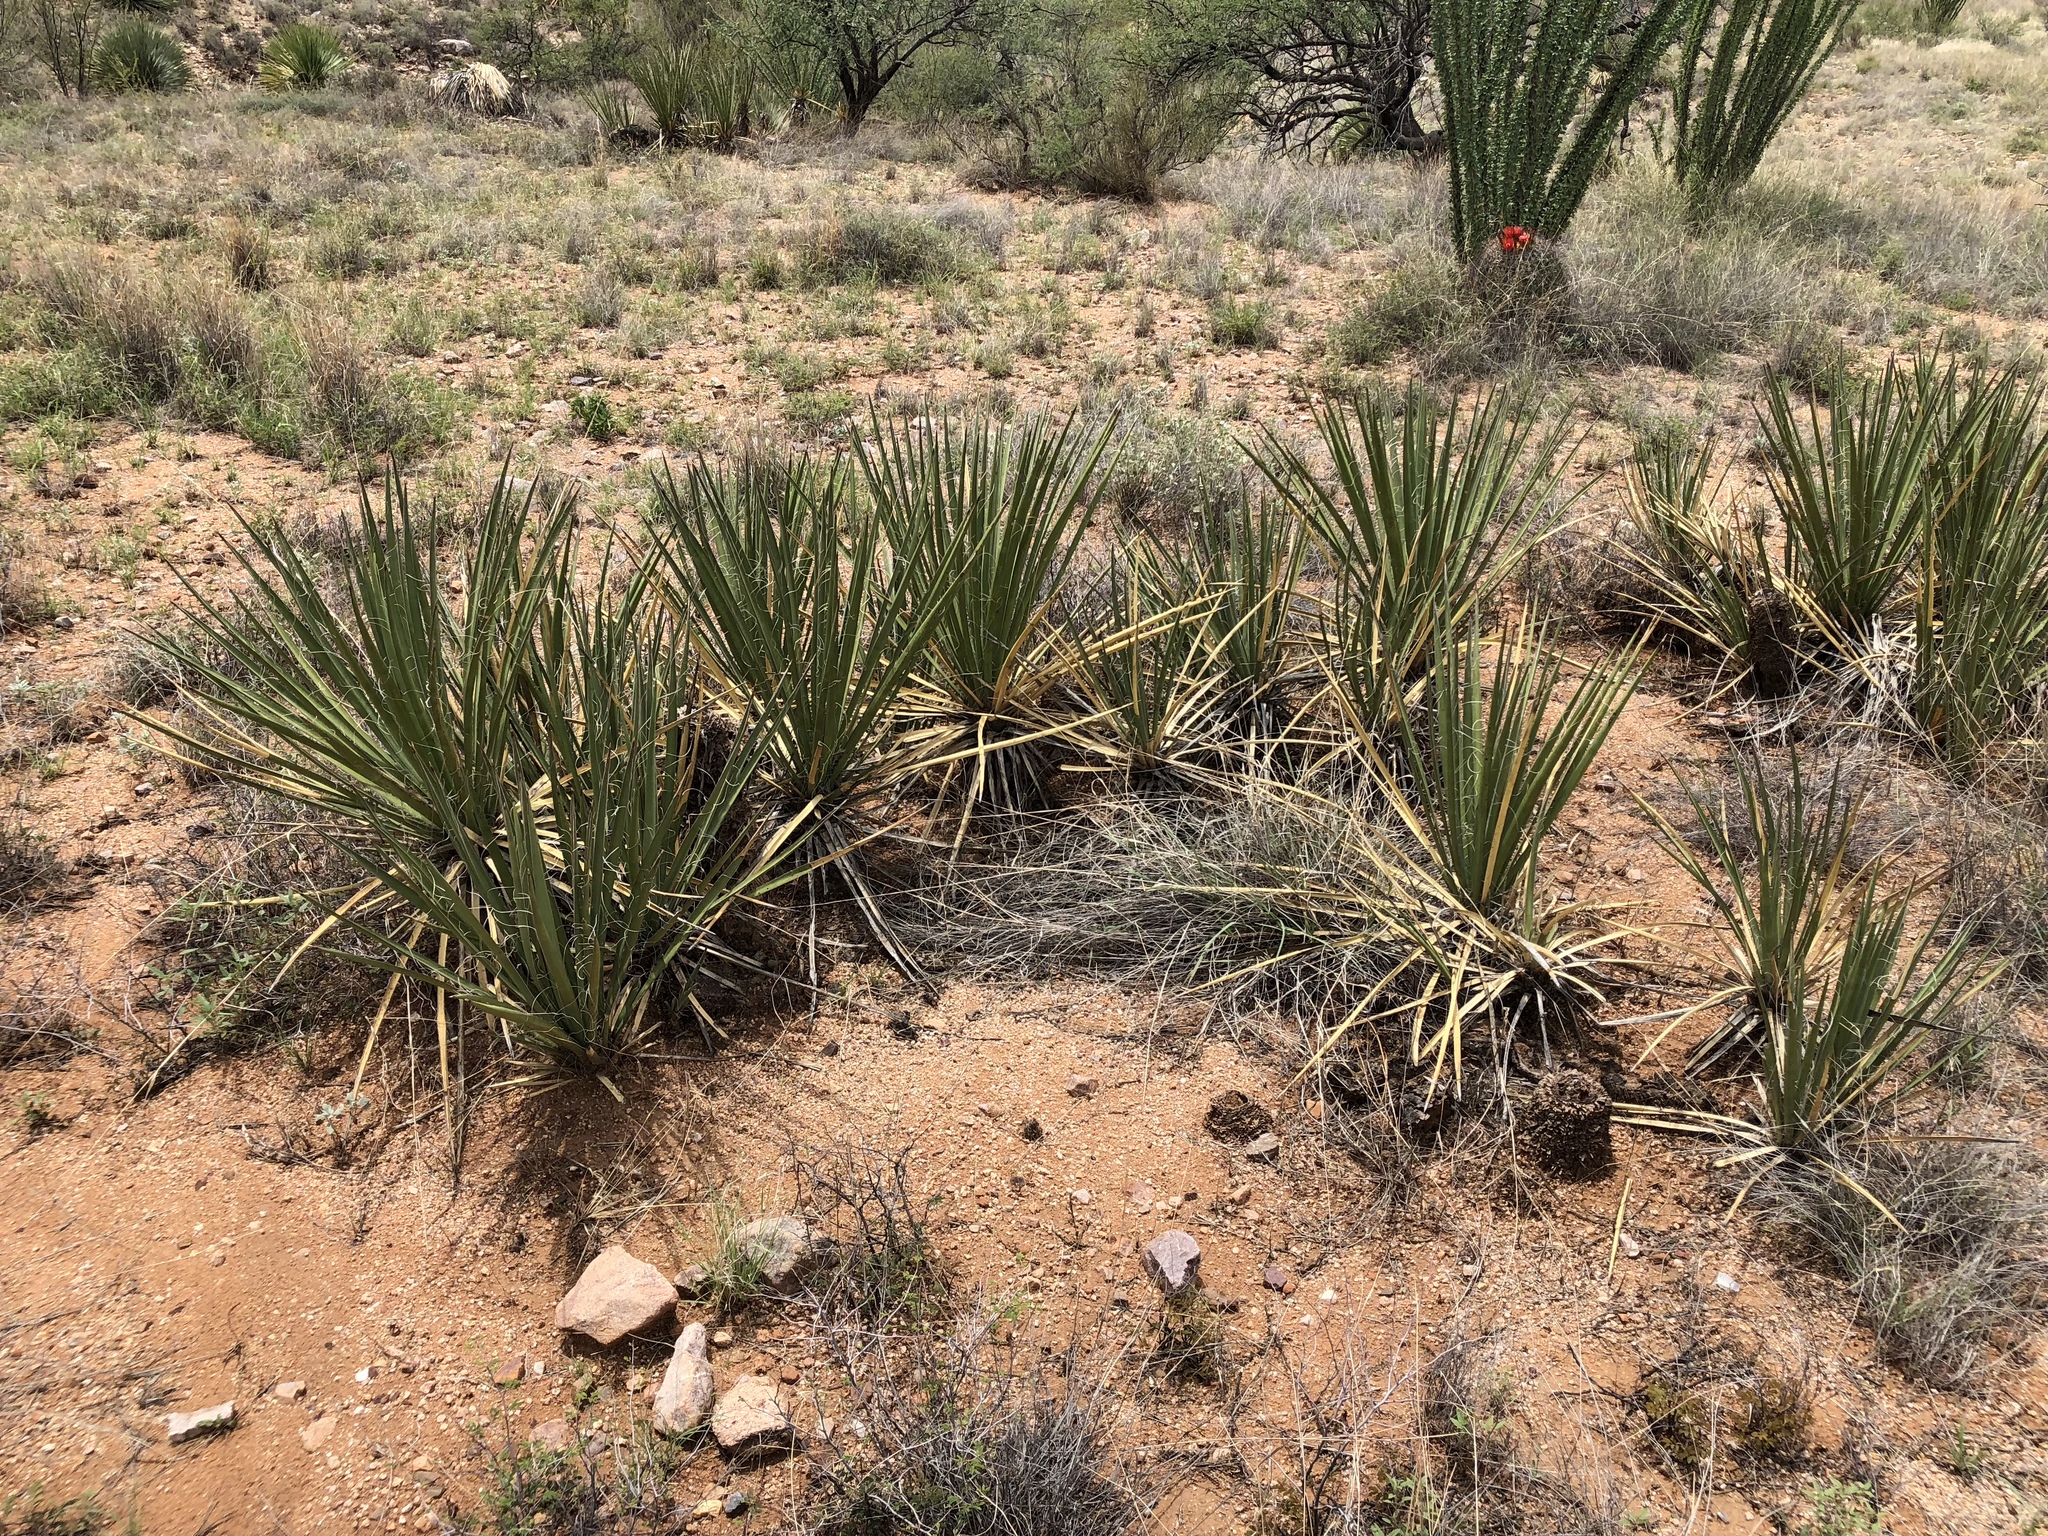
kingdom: Plantae
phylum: Tracheophyta
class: Liliopsida
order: Asparagales
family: Asparagaceae
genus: Yucca
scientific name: Yucca baccata
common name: Banana yucca
